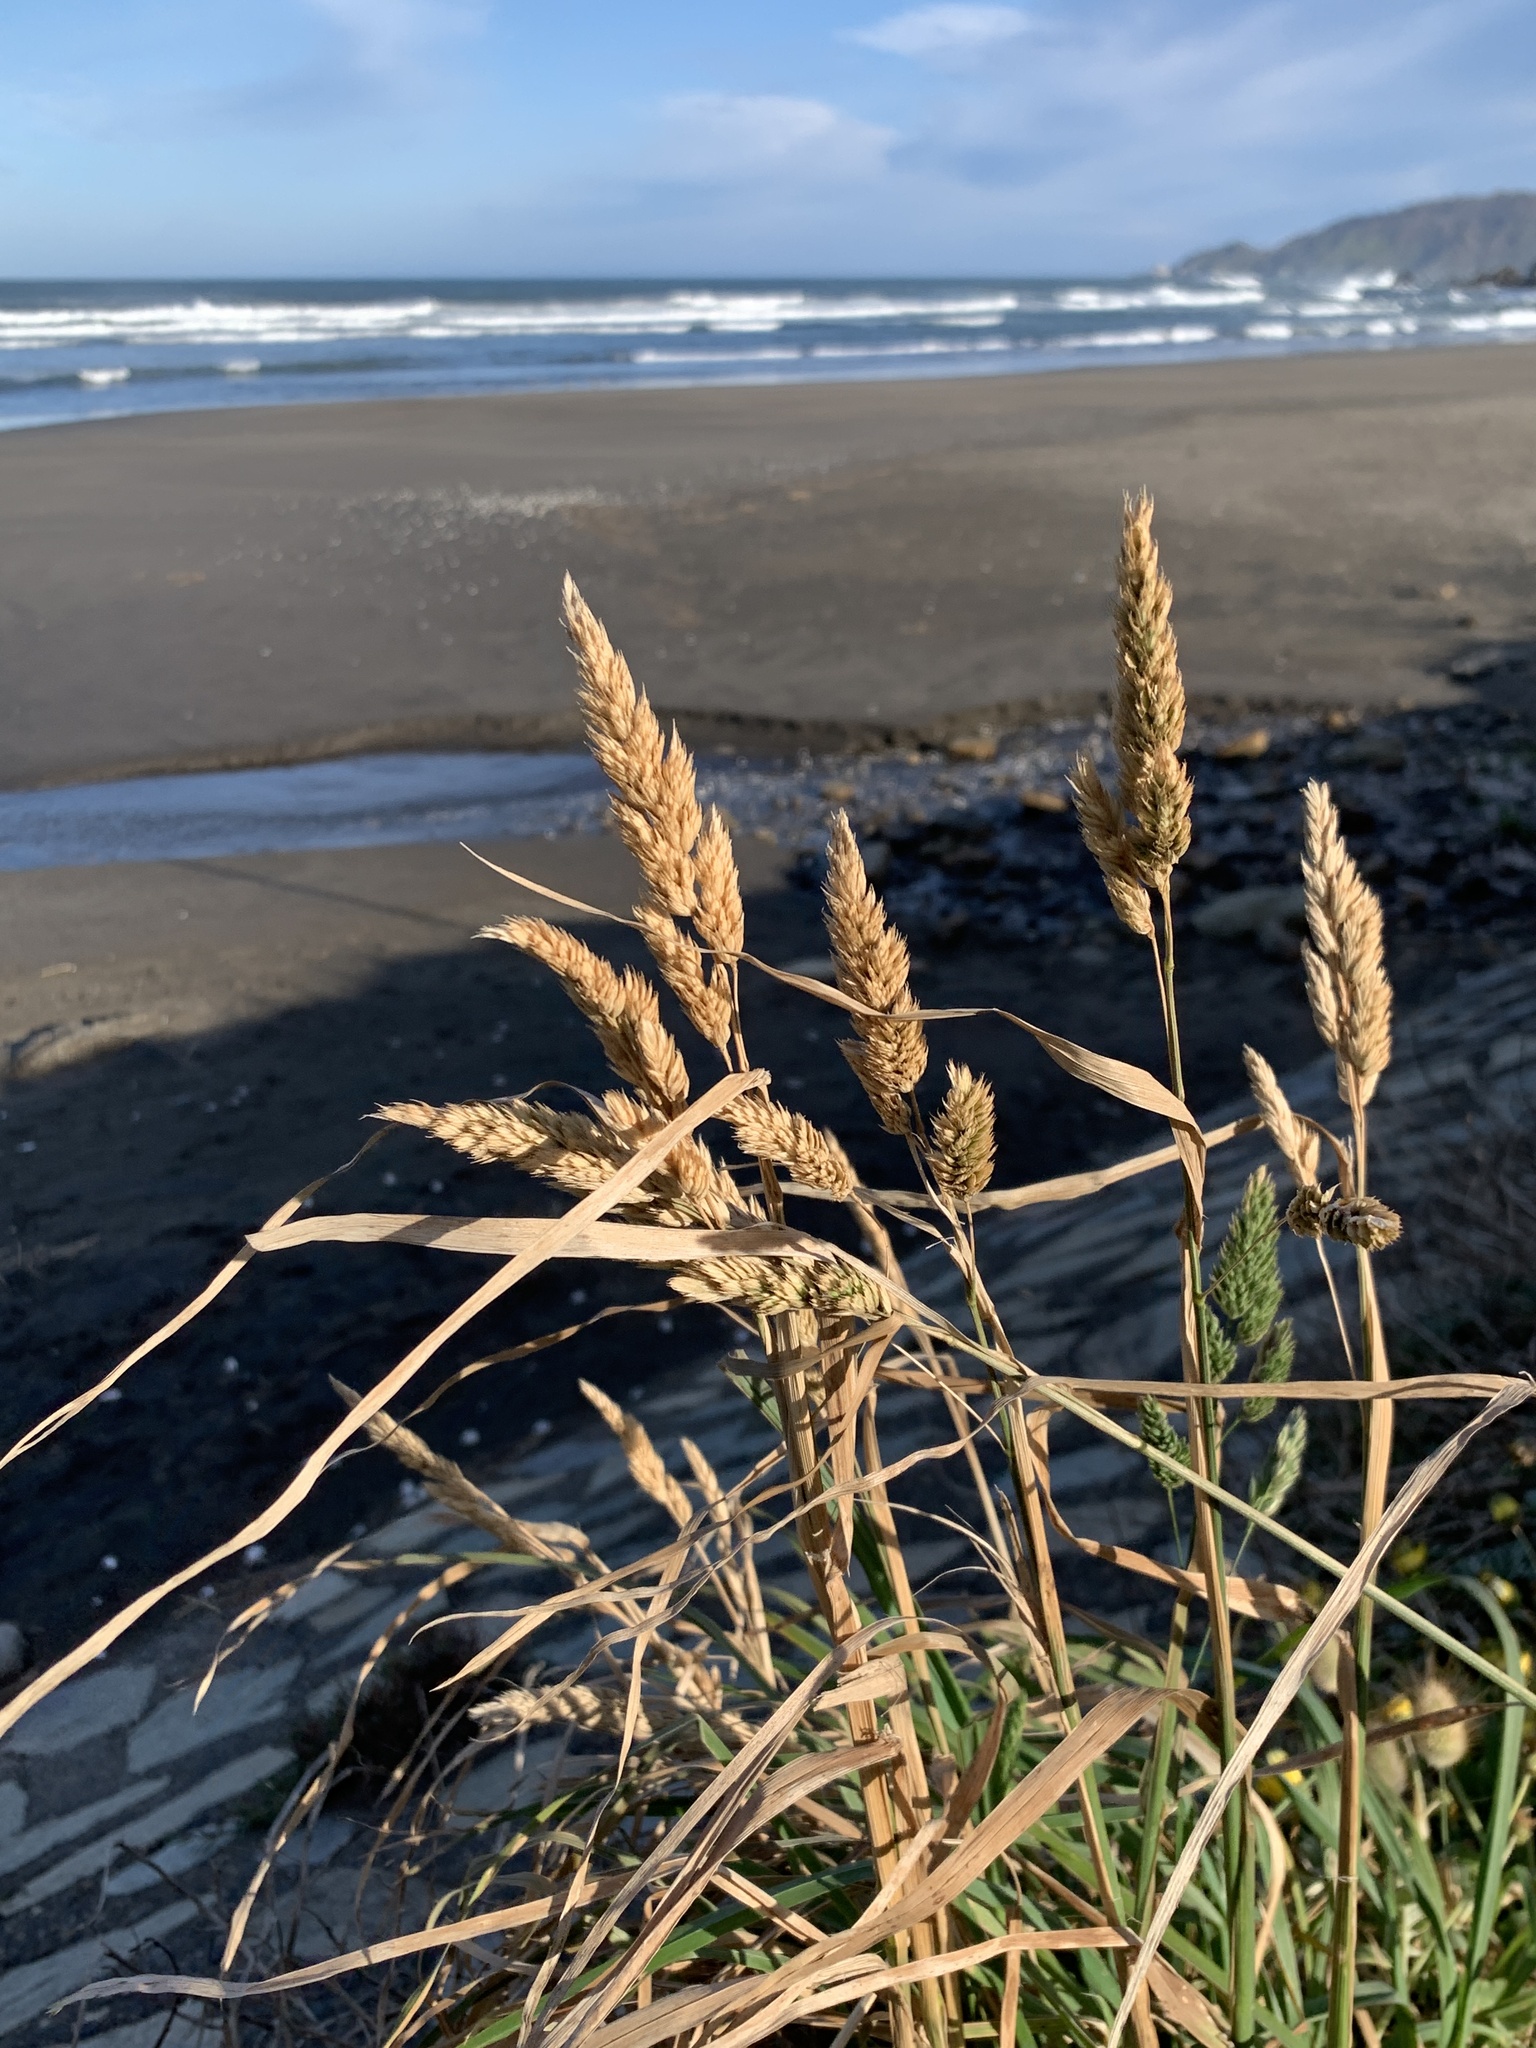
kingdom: Plantae
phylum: Tracheophyta
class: Liliopsida
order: Poales
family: Poaceae
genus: Dactylis
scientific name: Dactylis glomerata
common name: Orchardgrass
